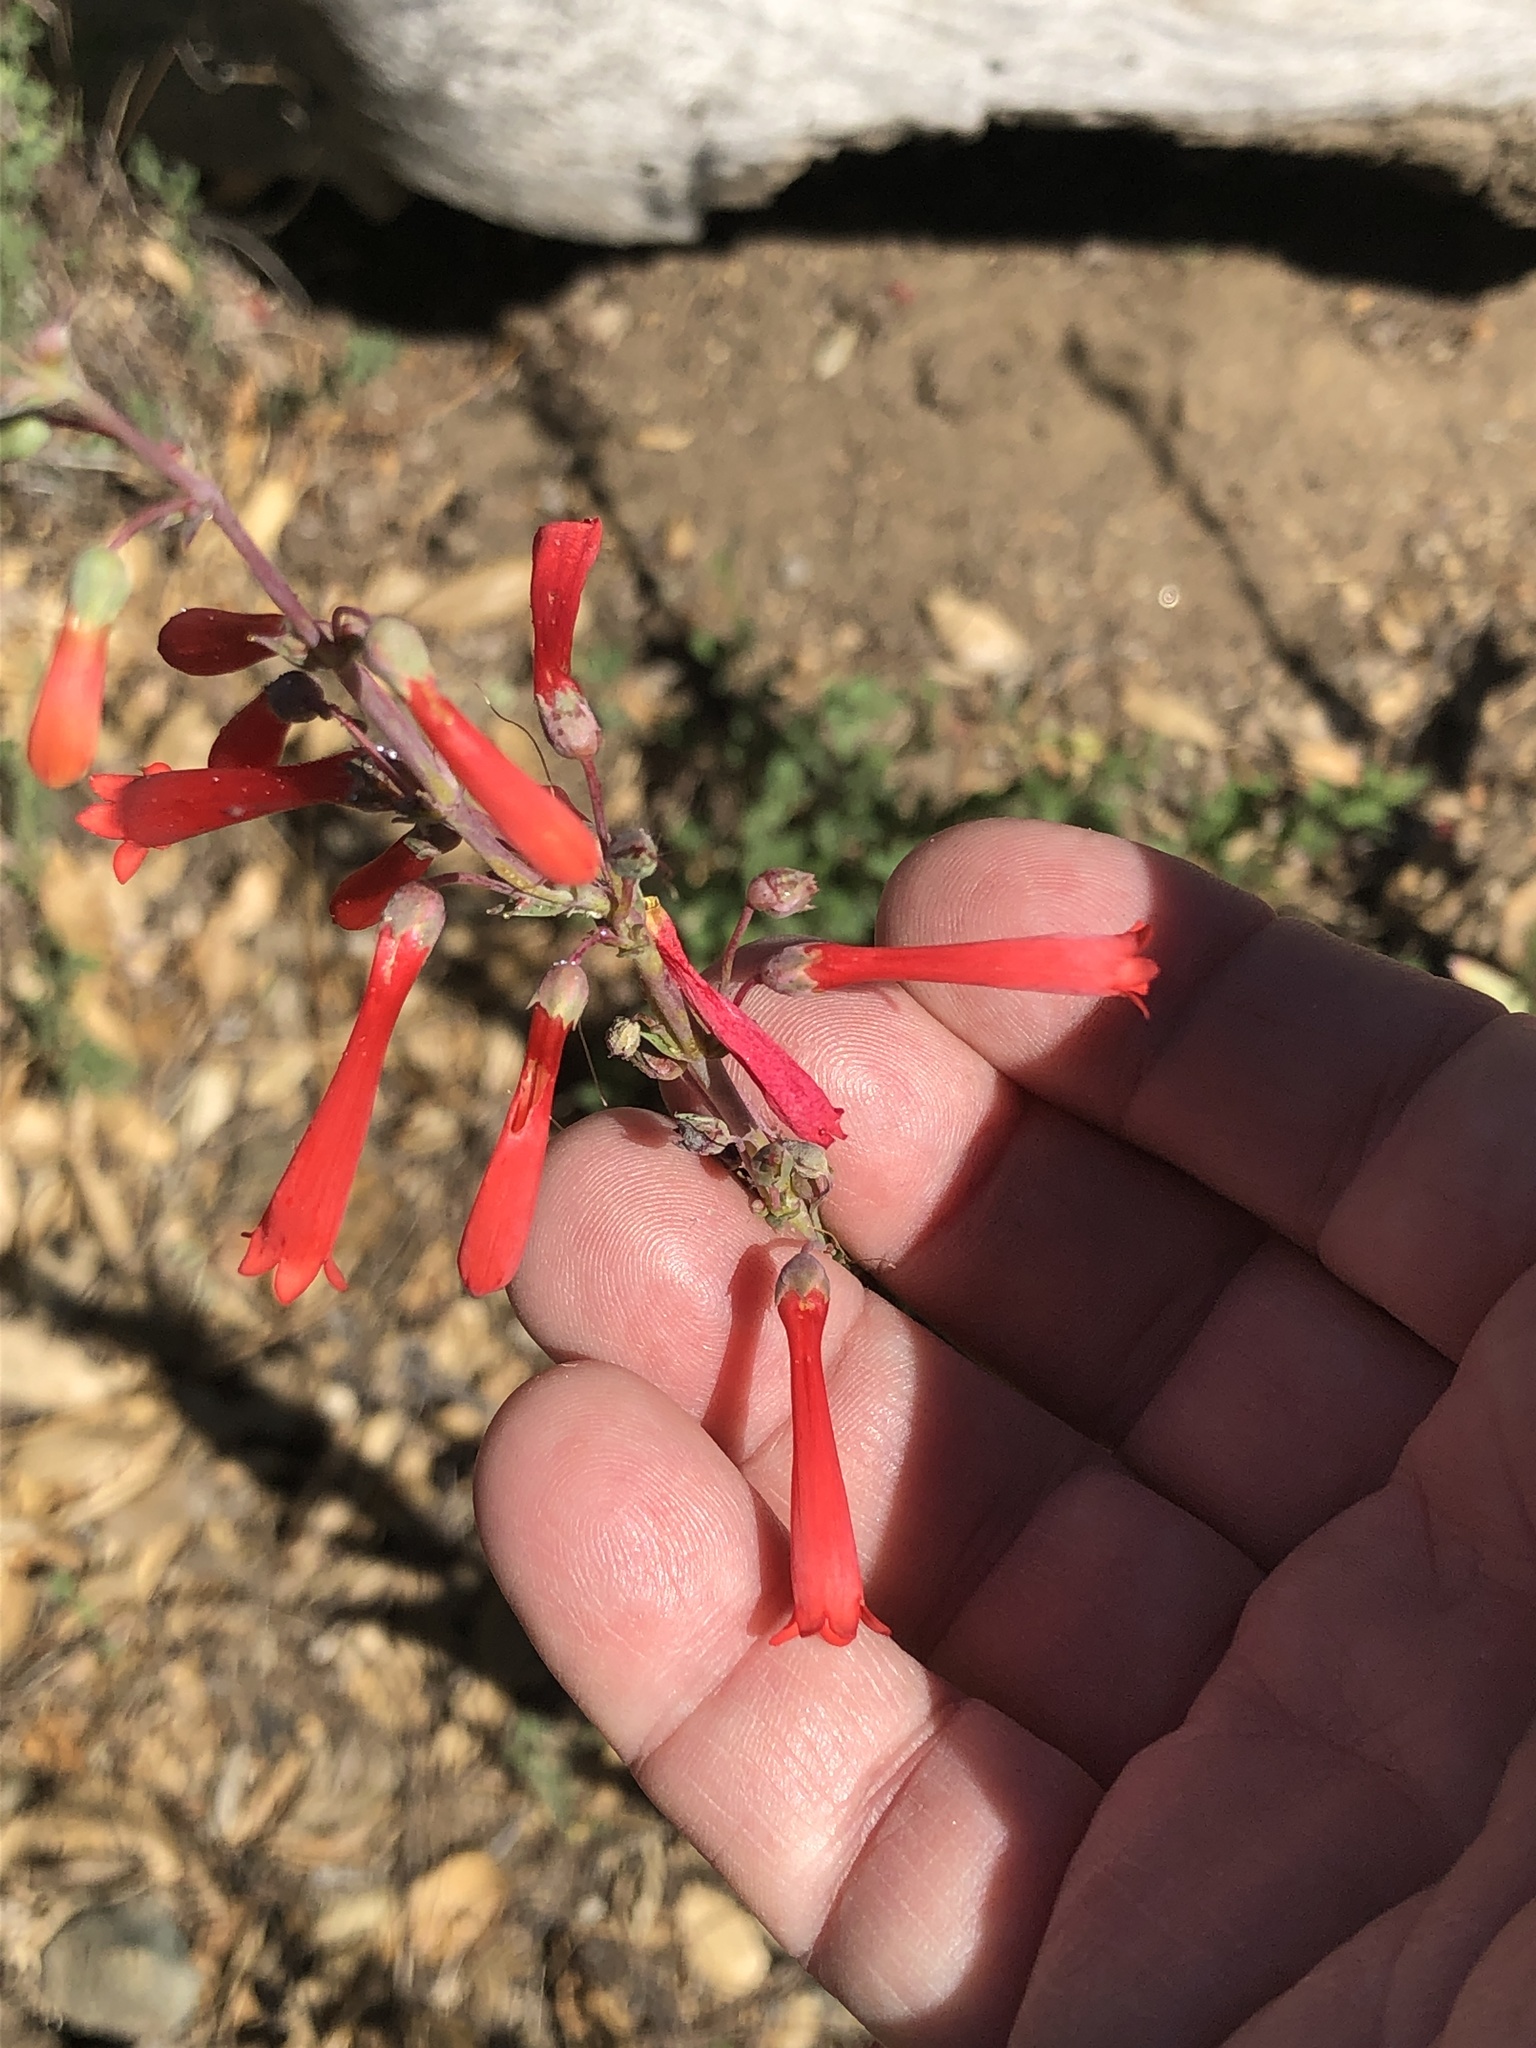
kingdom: Plantae
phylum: Tracheophyta
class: Magnoliopsida
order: Lamiales
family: Plantaginaceae
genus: Penstemon
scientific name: Penstemon centranthifolius
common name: Scarlet bugler
